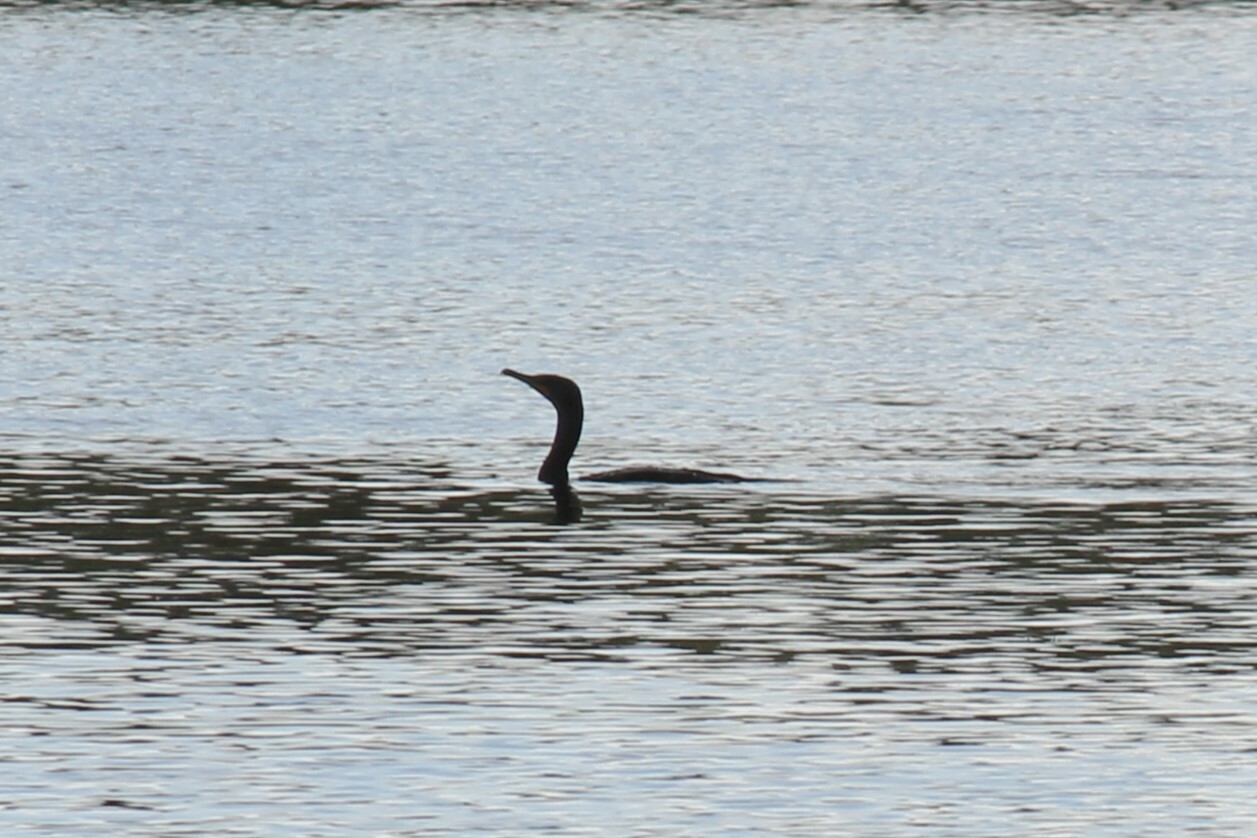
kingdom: Animalia
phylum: Chordata
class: Aves
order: Suliformes
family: Phalacrocoracidae
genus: Phalacrocorax
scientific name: Phalacrocorax auritus
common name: Double-crested cormorant
